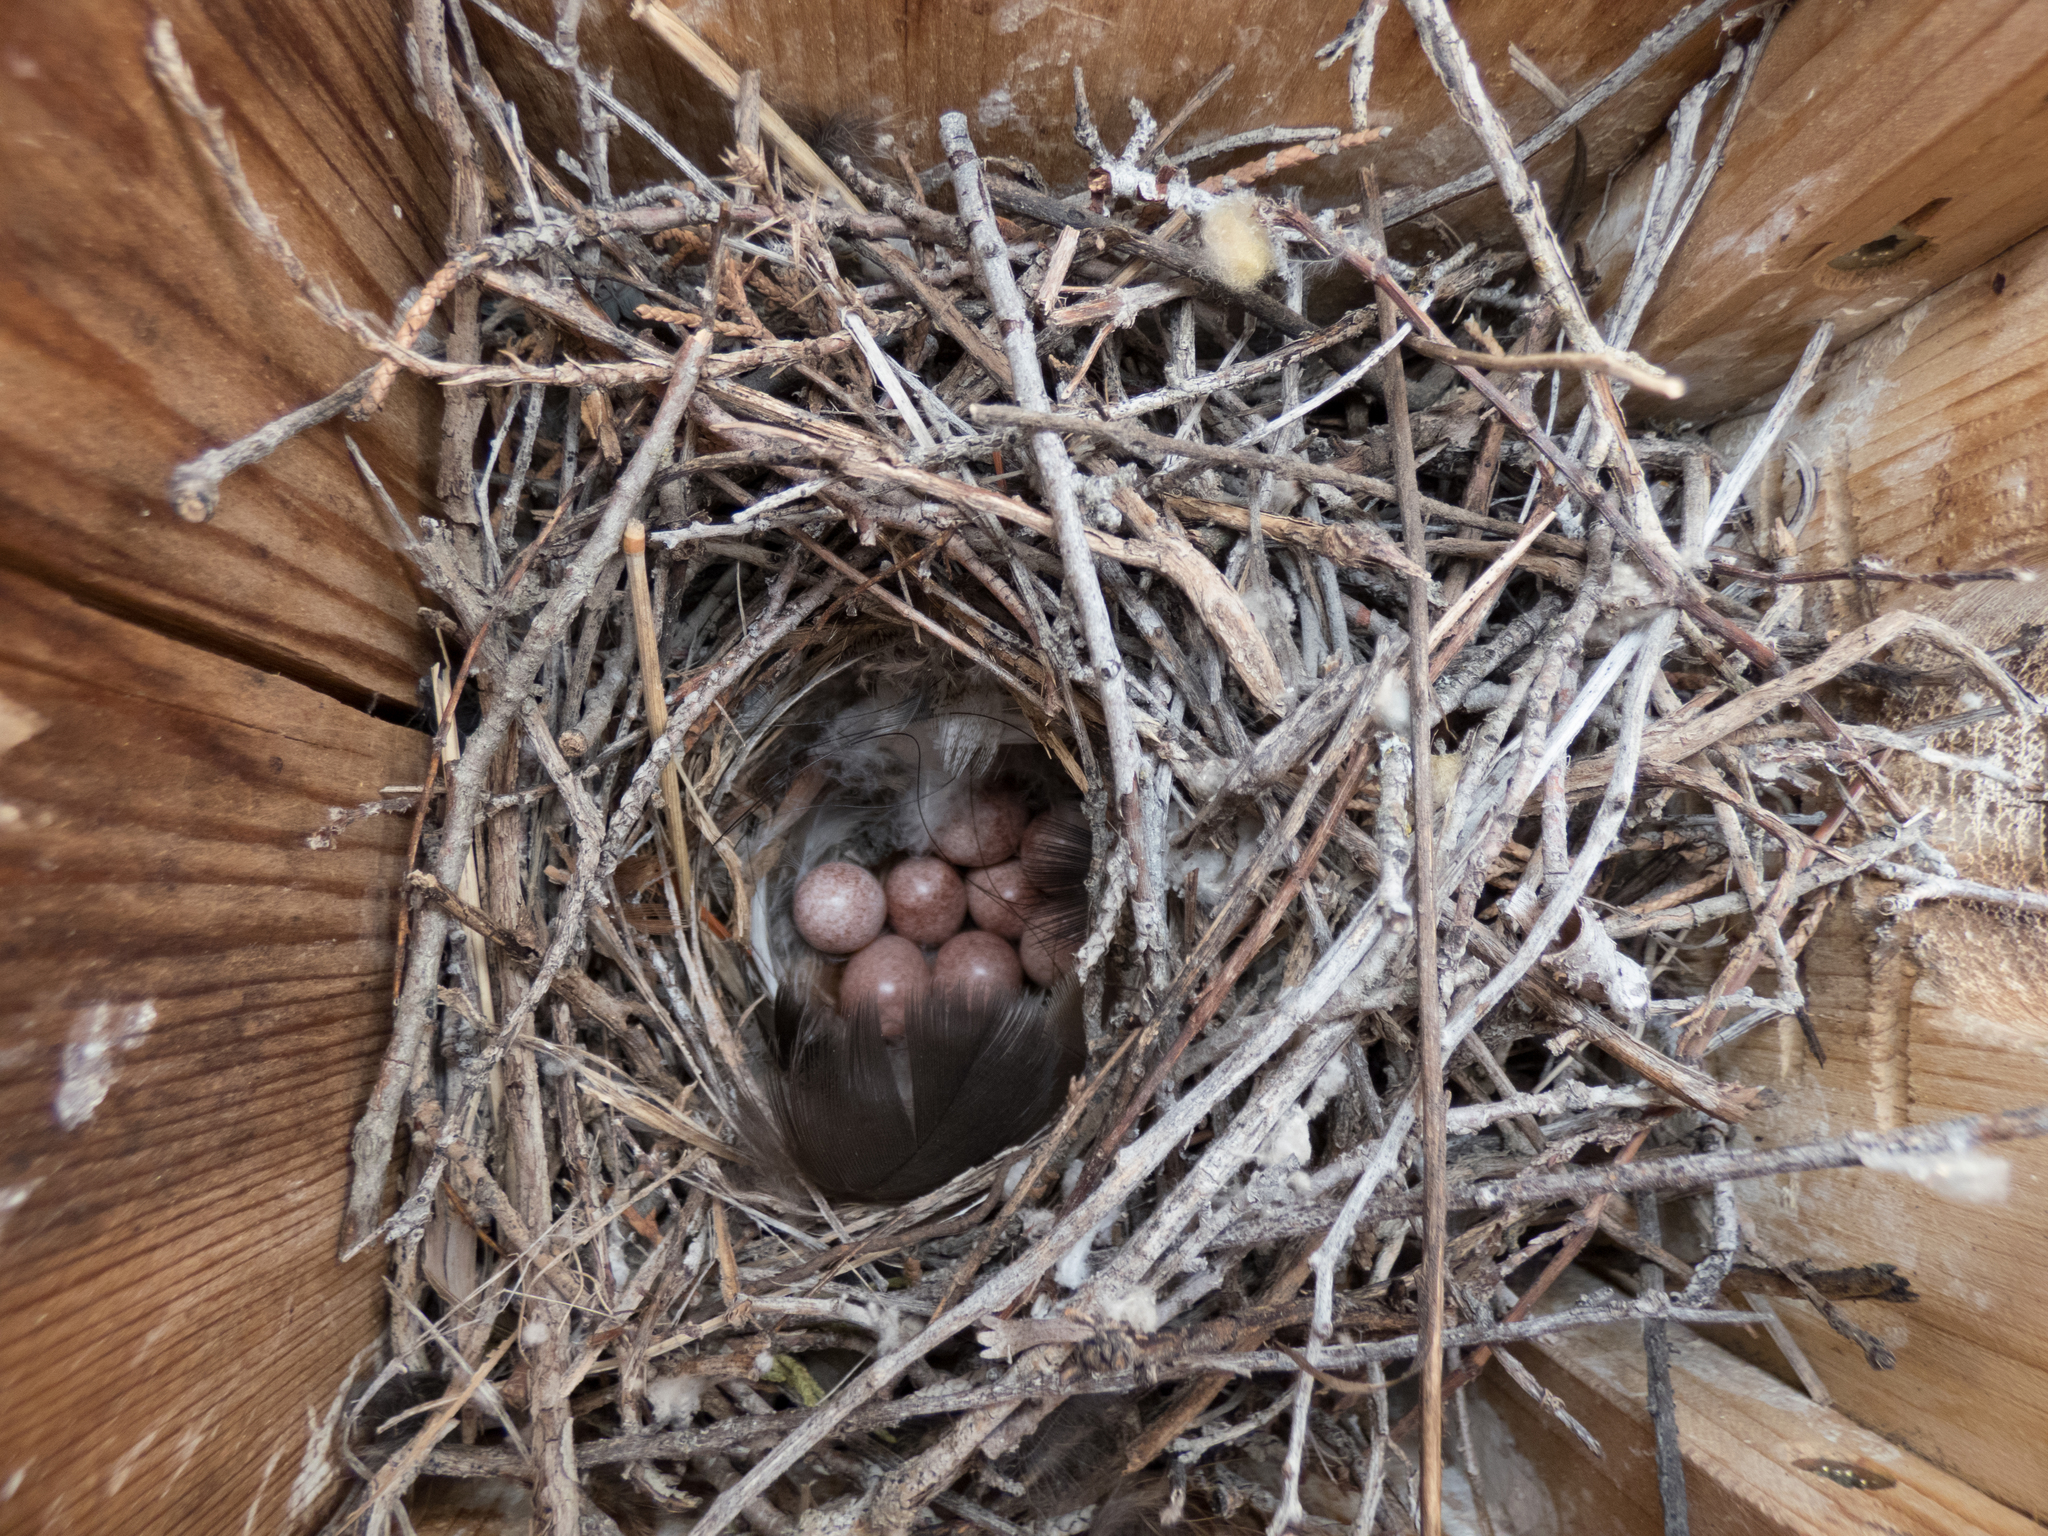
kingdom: Animalia
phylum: Chordata
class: Aves
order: Passeriformes
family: Troglodytidae
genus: Troglodytes
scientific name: Troglodytes aedon
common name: House wren
